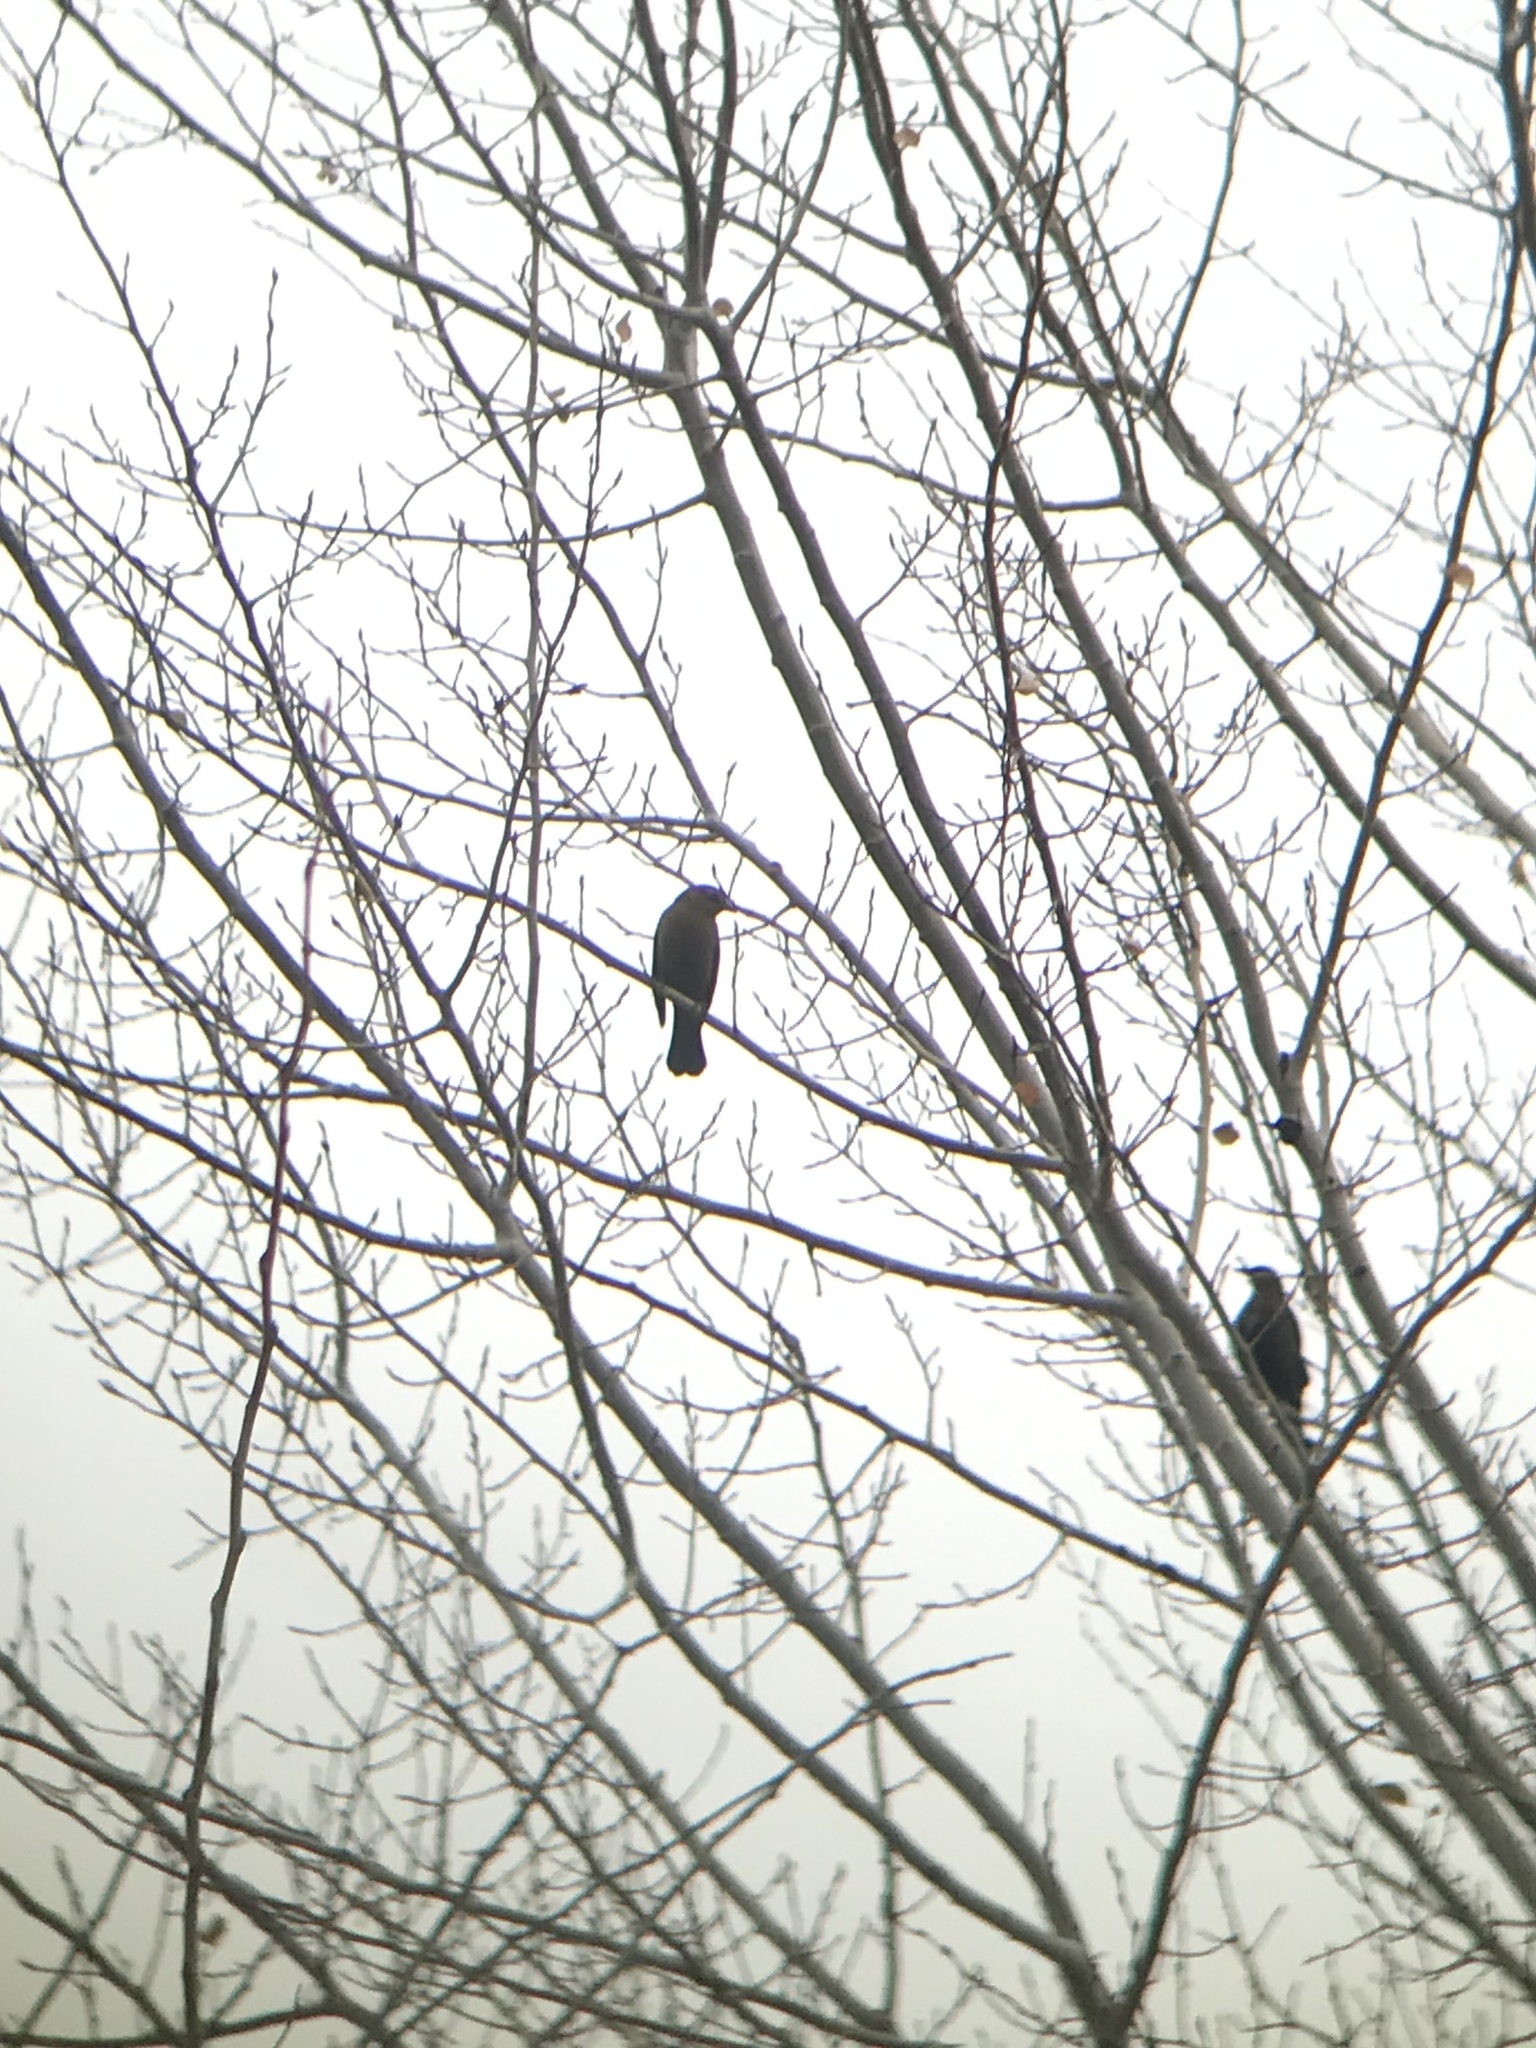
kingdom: Animalia
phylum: Chordata
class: Aves
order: Passeriformes
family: Icteridae
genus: Euphagus
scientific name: Euphagus carolinus
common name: Rusty blackbird
